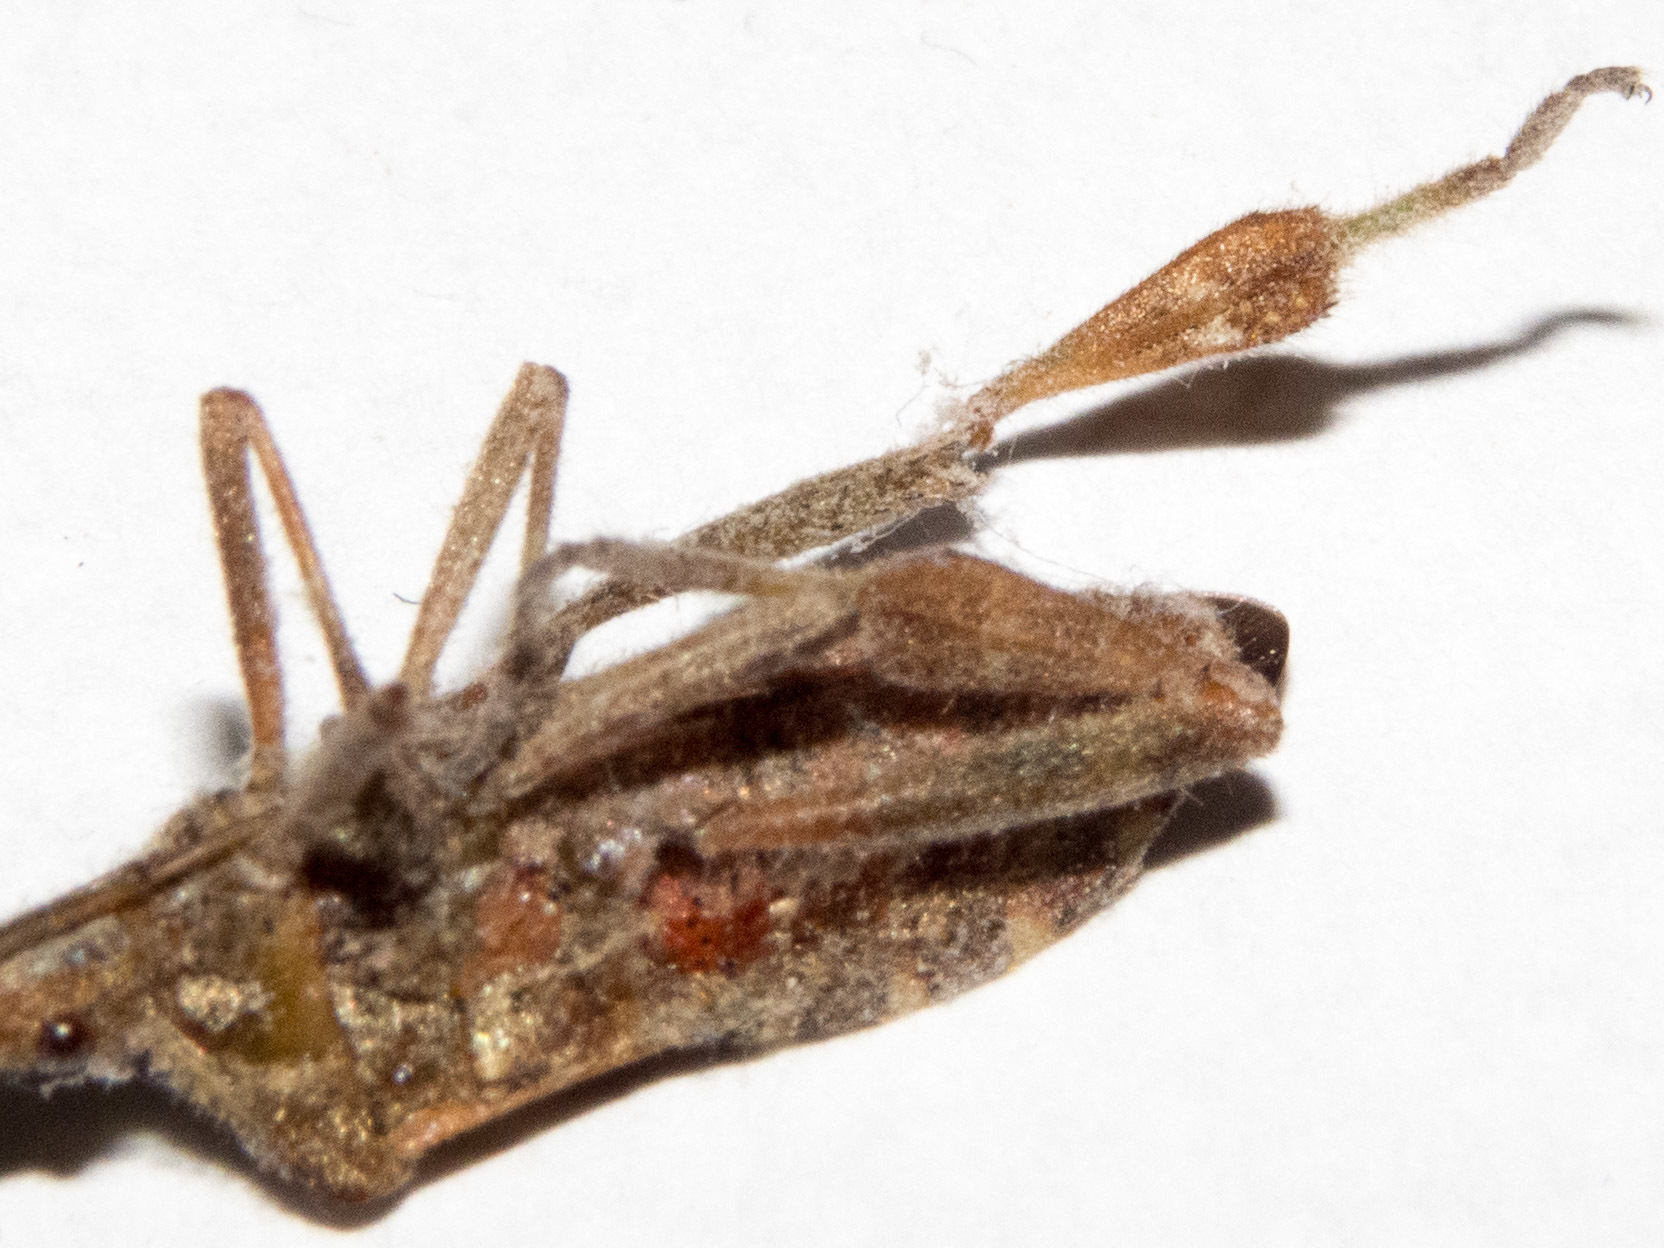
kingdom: Animalia
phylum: Arthropoda
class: Insecta
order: Hemiptera
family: Coreidae
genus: Leptoglossus
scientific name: Leptoglossus occidentalis
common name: Western conifer-seed bug
